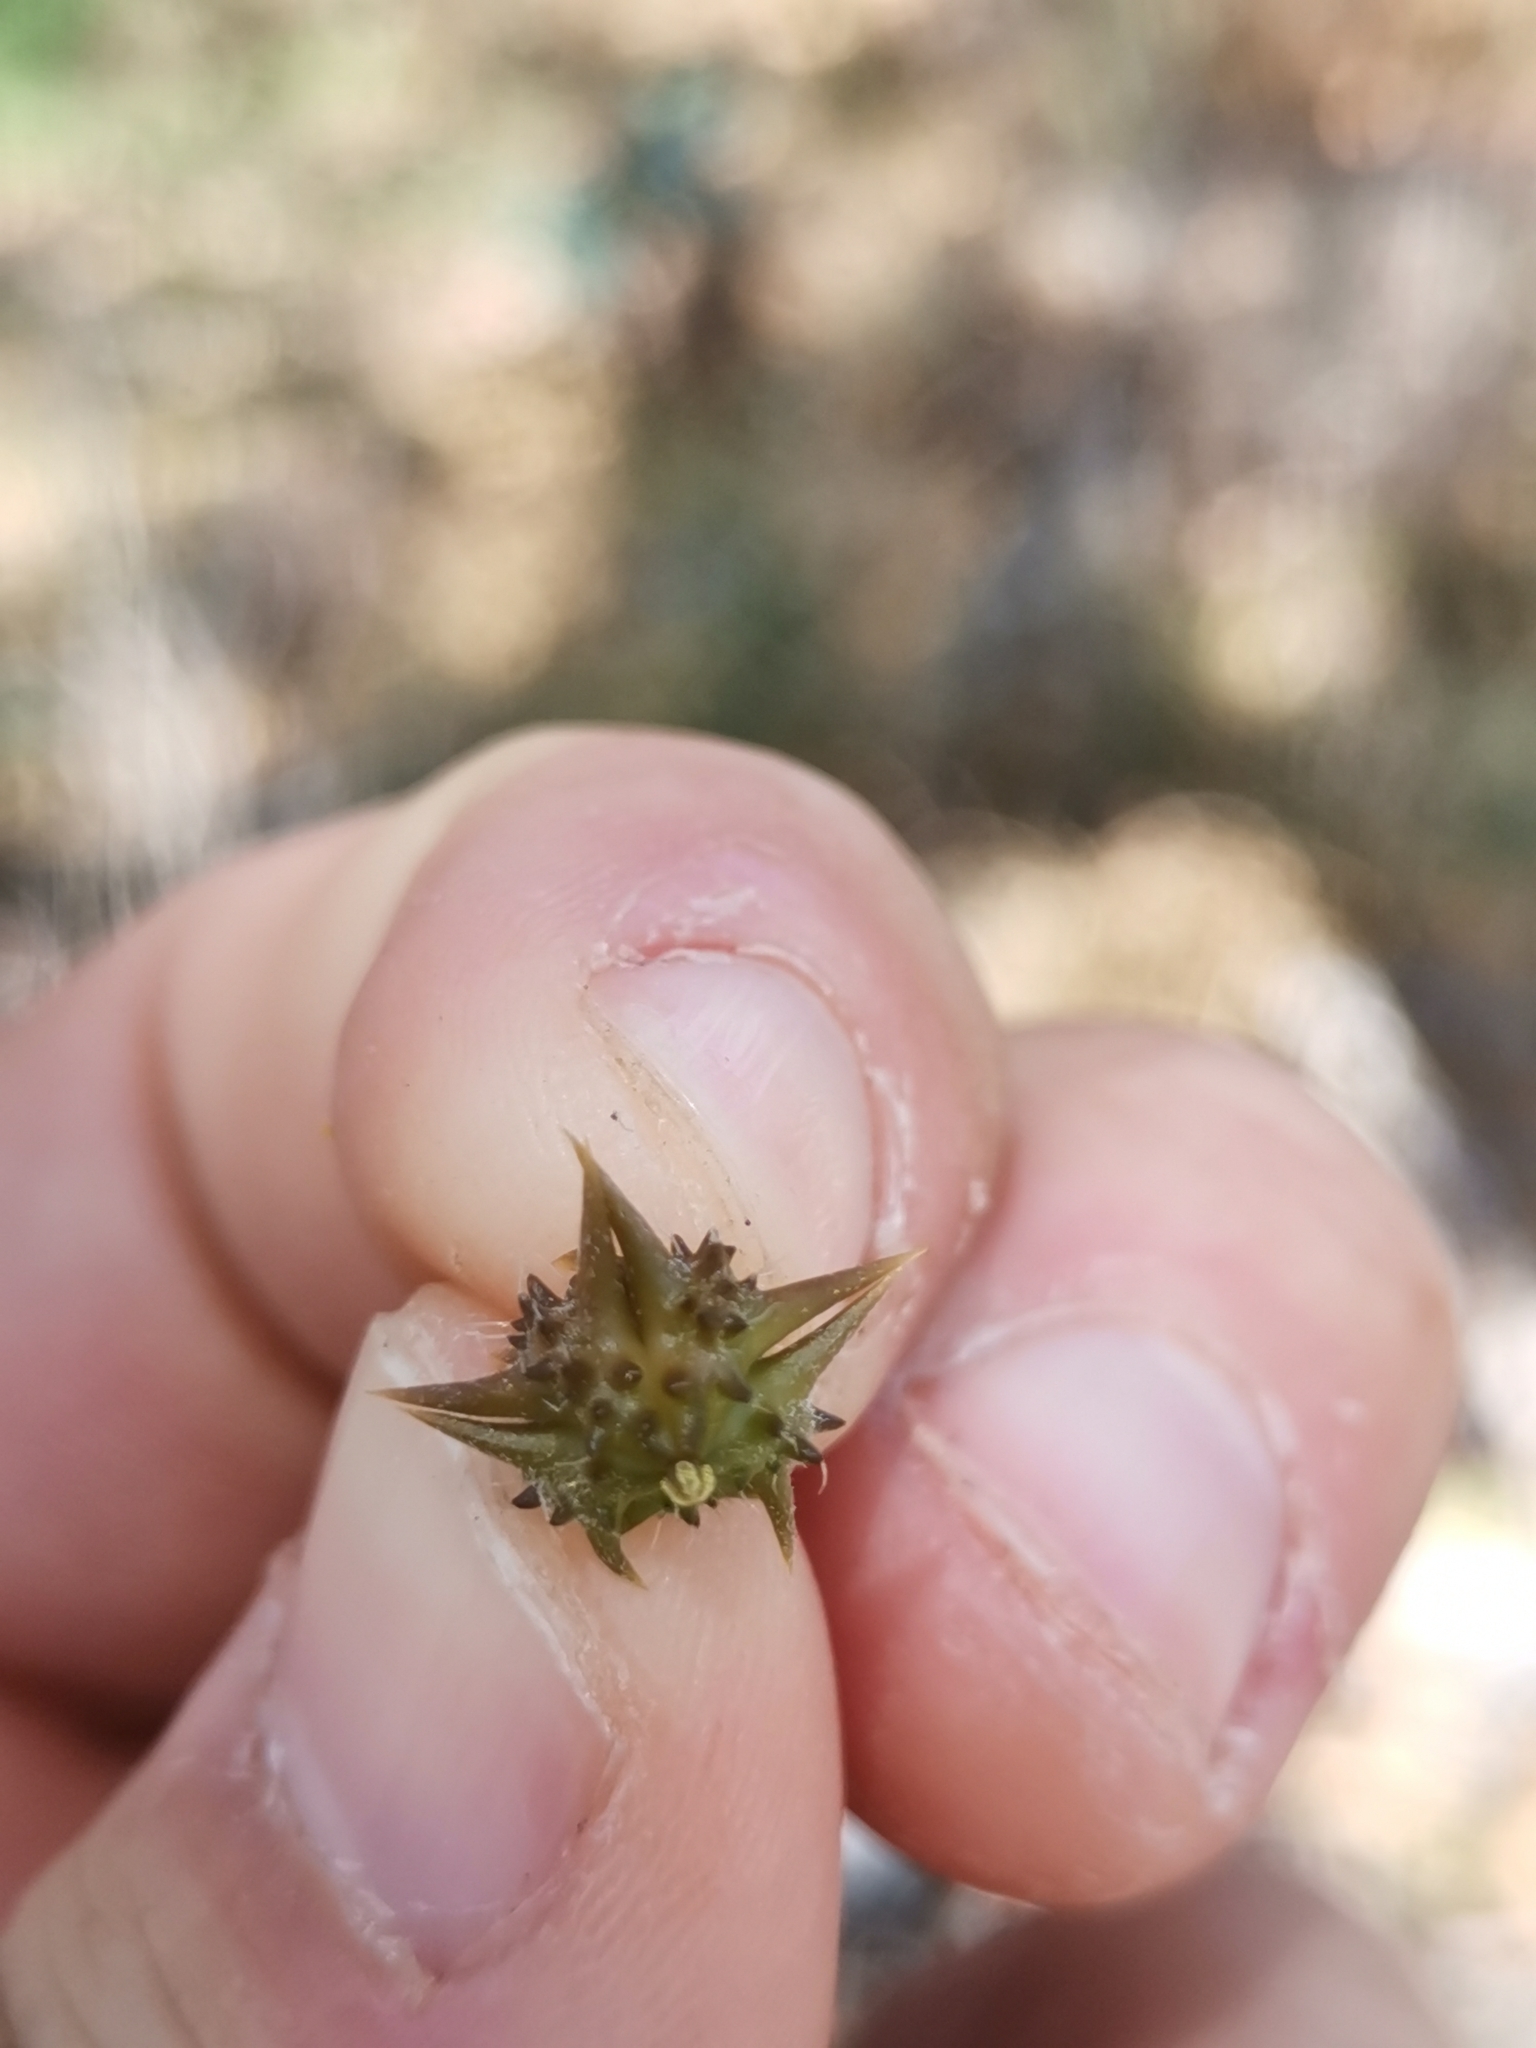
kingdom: Plantae
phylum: Tracheophyta
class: Magnoliopsida
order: Zygophyllales
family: Zygophyllaceae
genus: Tribulus
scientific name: Tribulus terrestris
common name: Puncturevine
